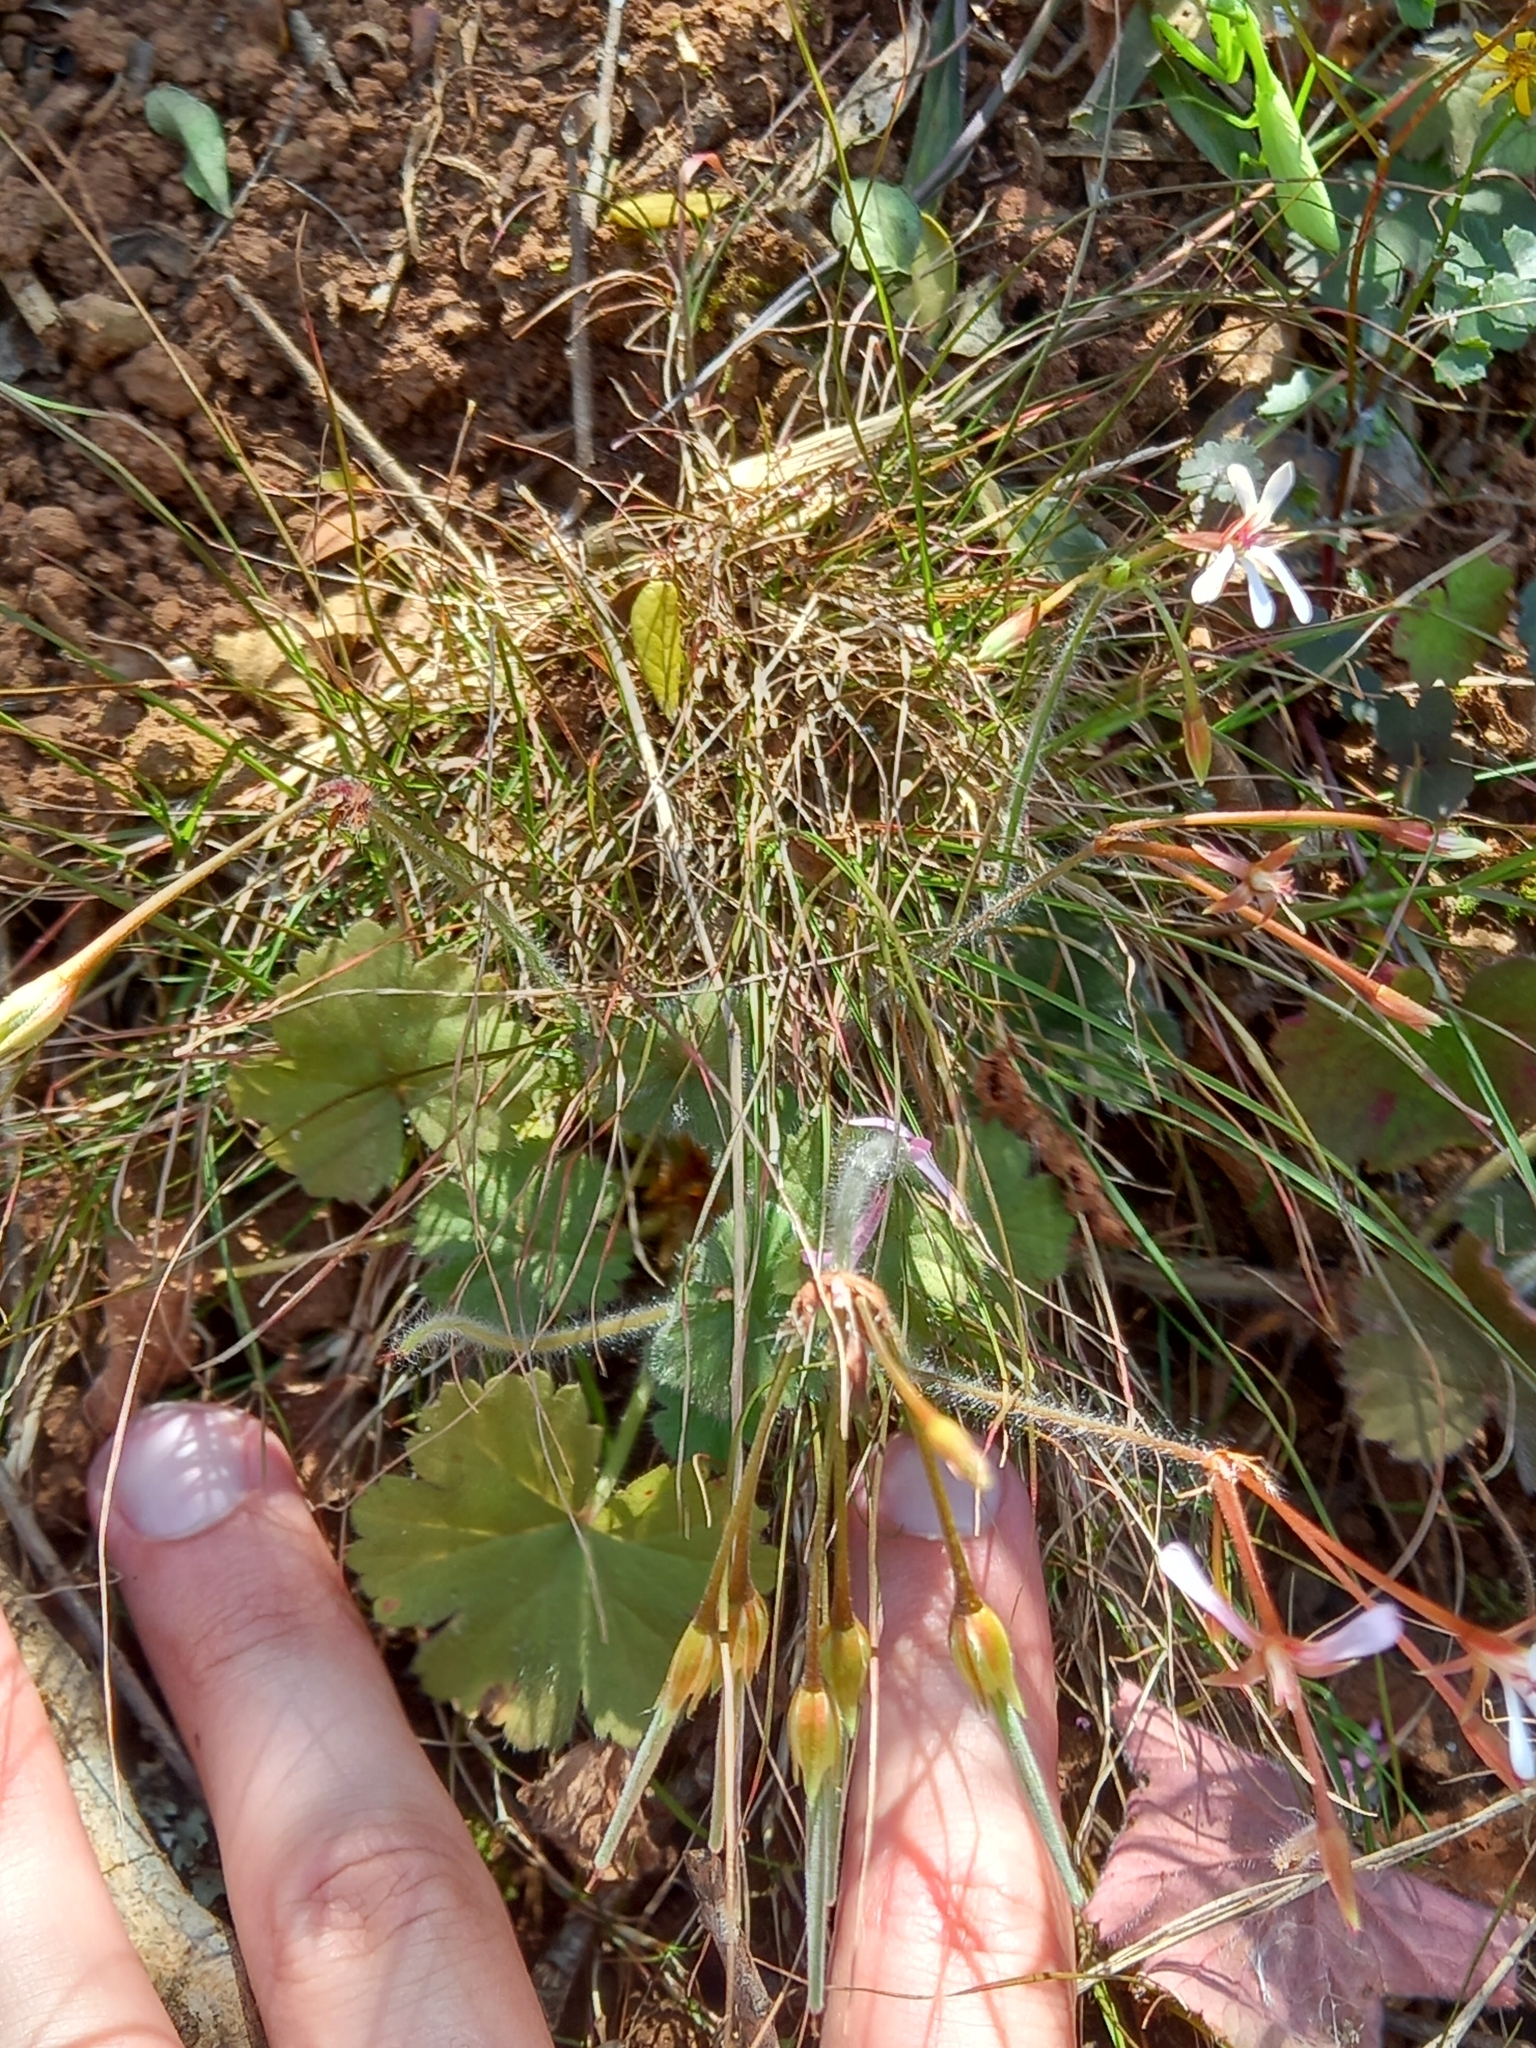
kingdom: Plantae
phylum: Tracheophyta
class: Magnoliopsida
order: Geraniales
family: Geraniaceae
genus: Pelargonium
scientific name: Pelargonium alchemilloides
